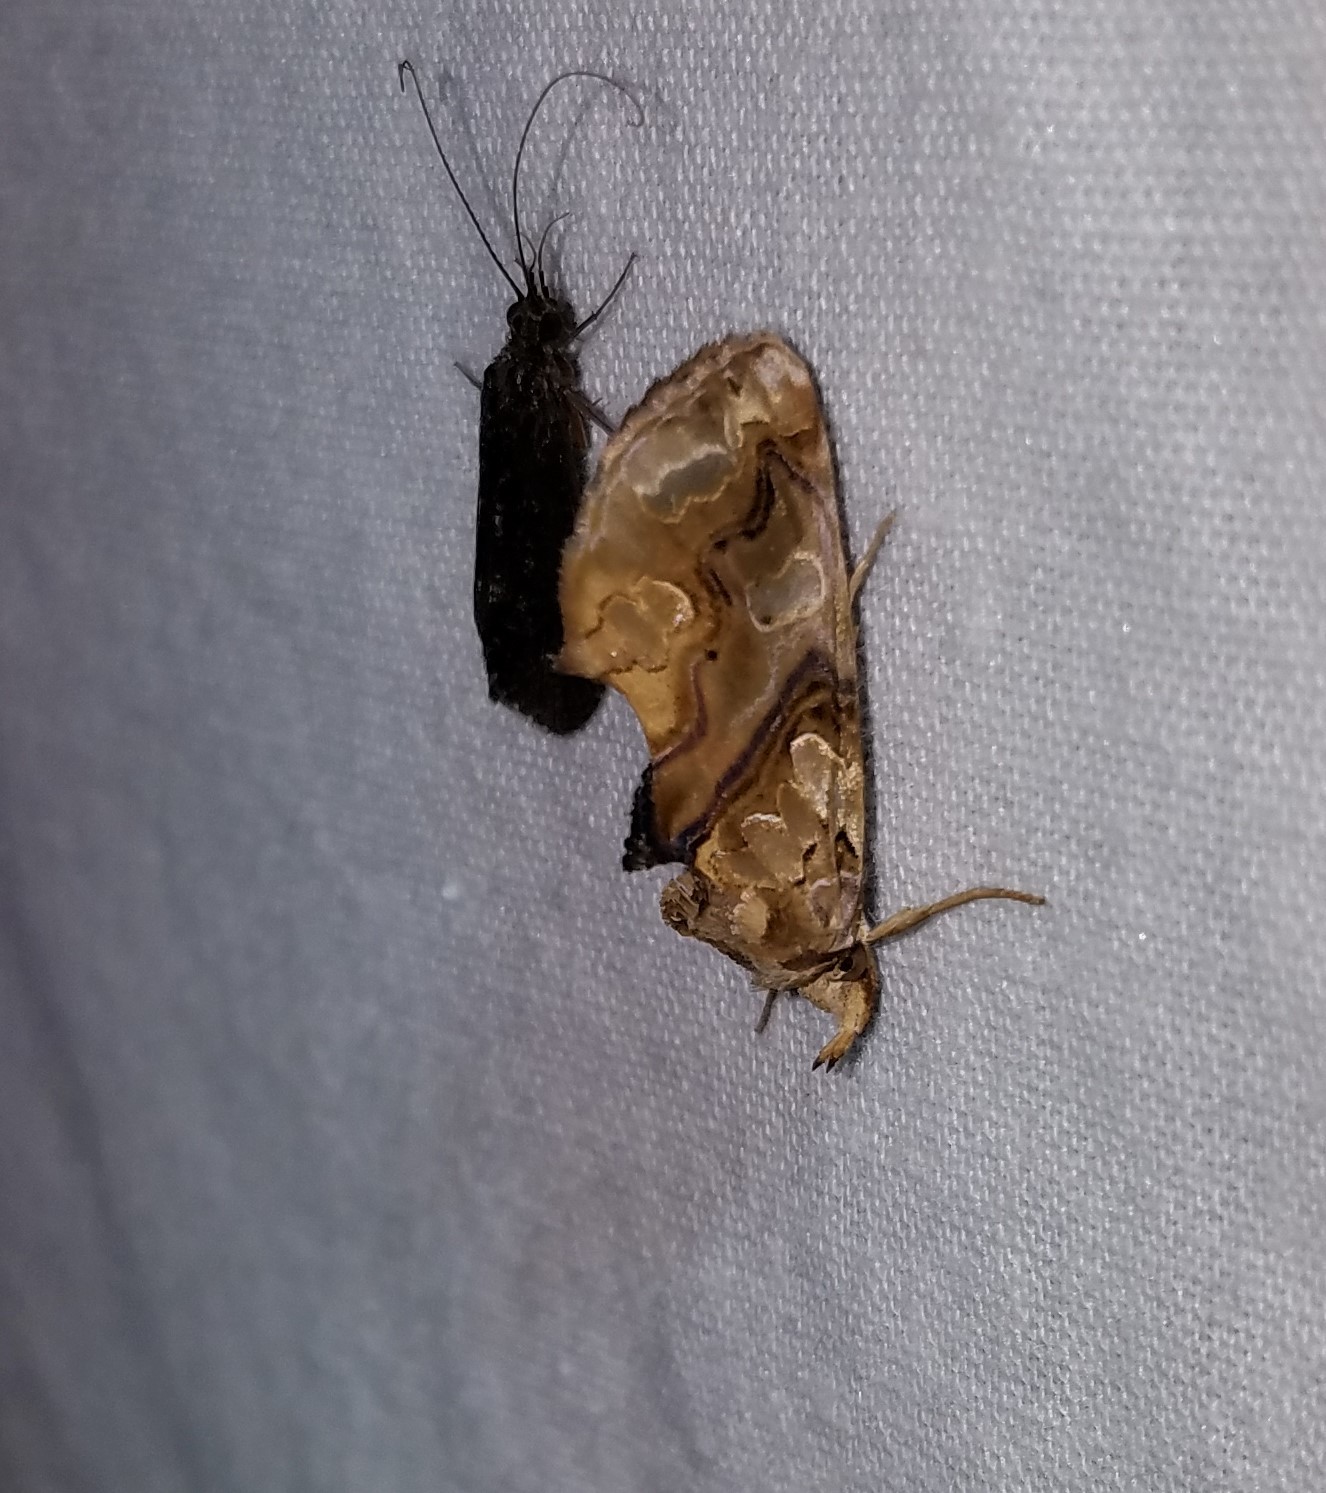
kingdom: Animalia
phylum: Arthropoda
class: Insecta
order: Lepidoptera
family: Erebidae
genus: Plusiodonta
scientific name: Plusiodonta compressipalpis
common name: Moonseed moth
